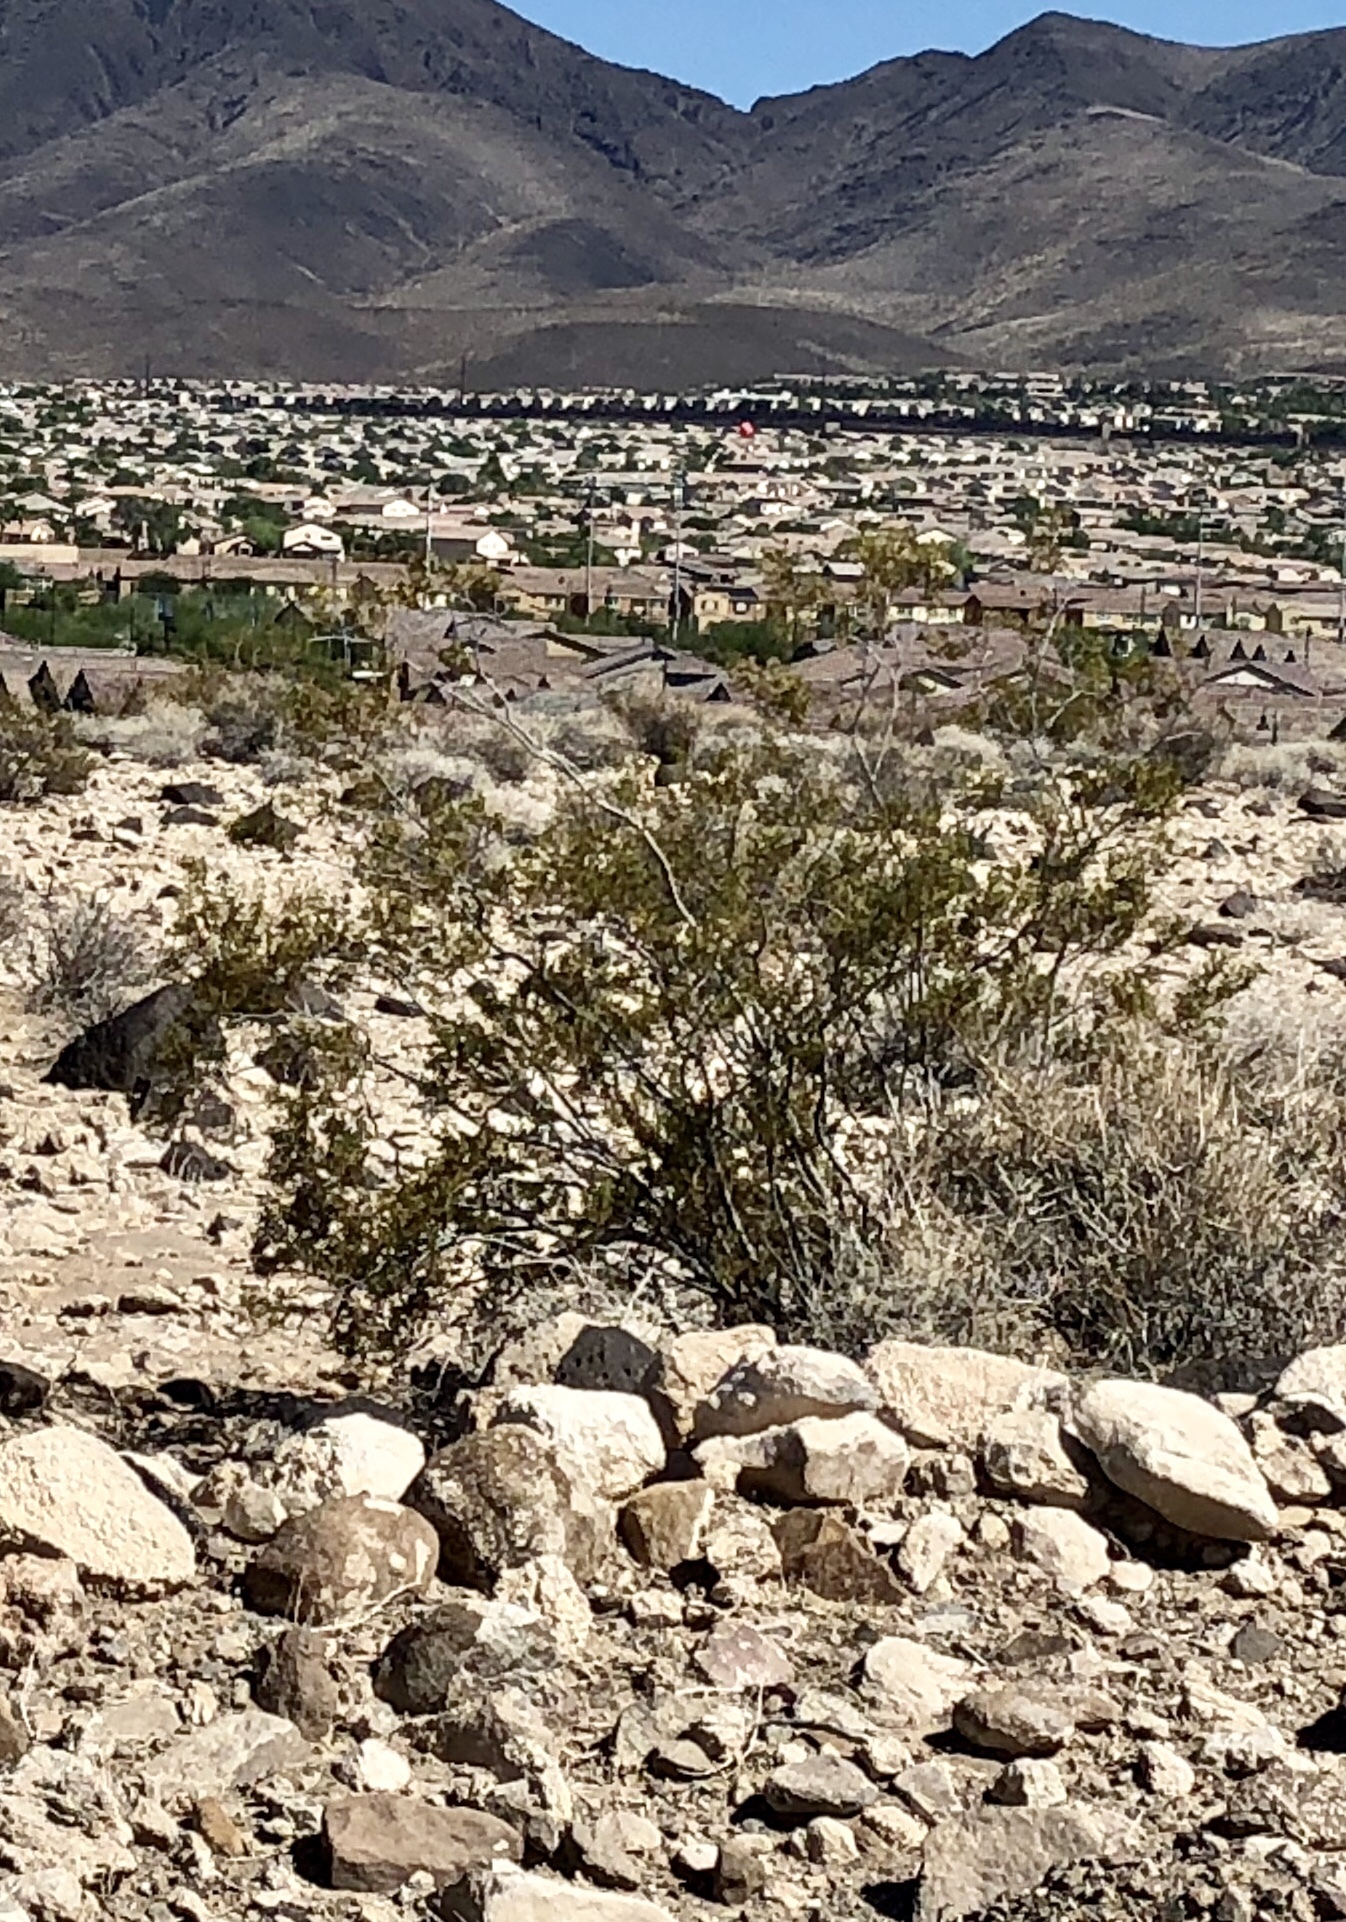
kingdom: Plantae
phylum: Tracheophyta
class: Magnoliopsida
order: Zygophyllales
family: Zygophyllaceae
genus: Larrea
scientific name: Larrea tridentata
